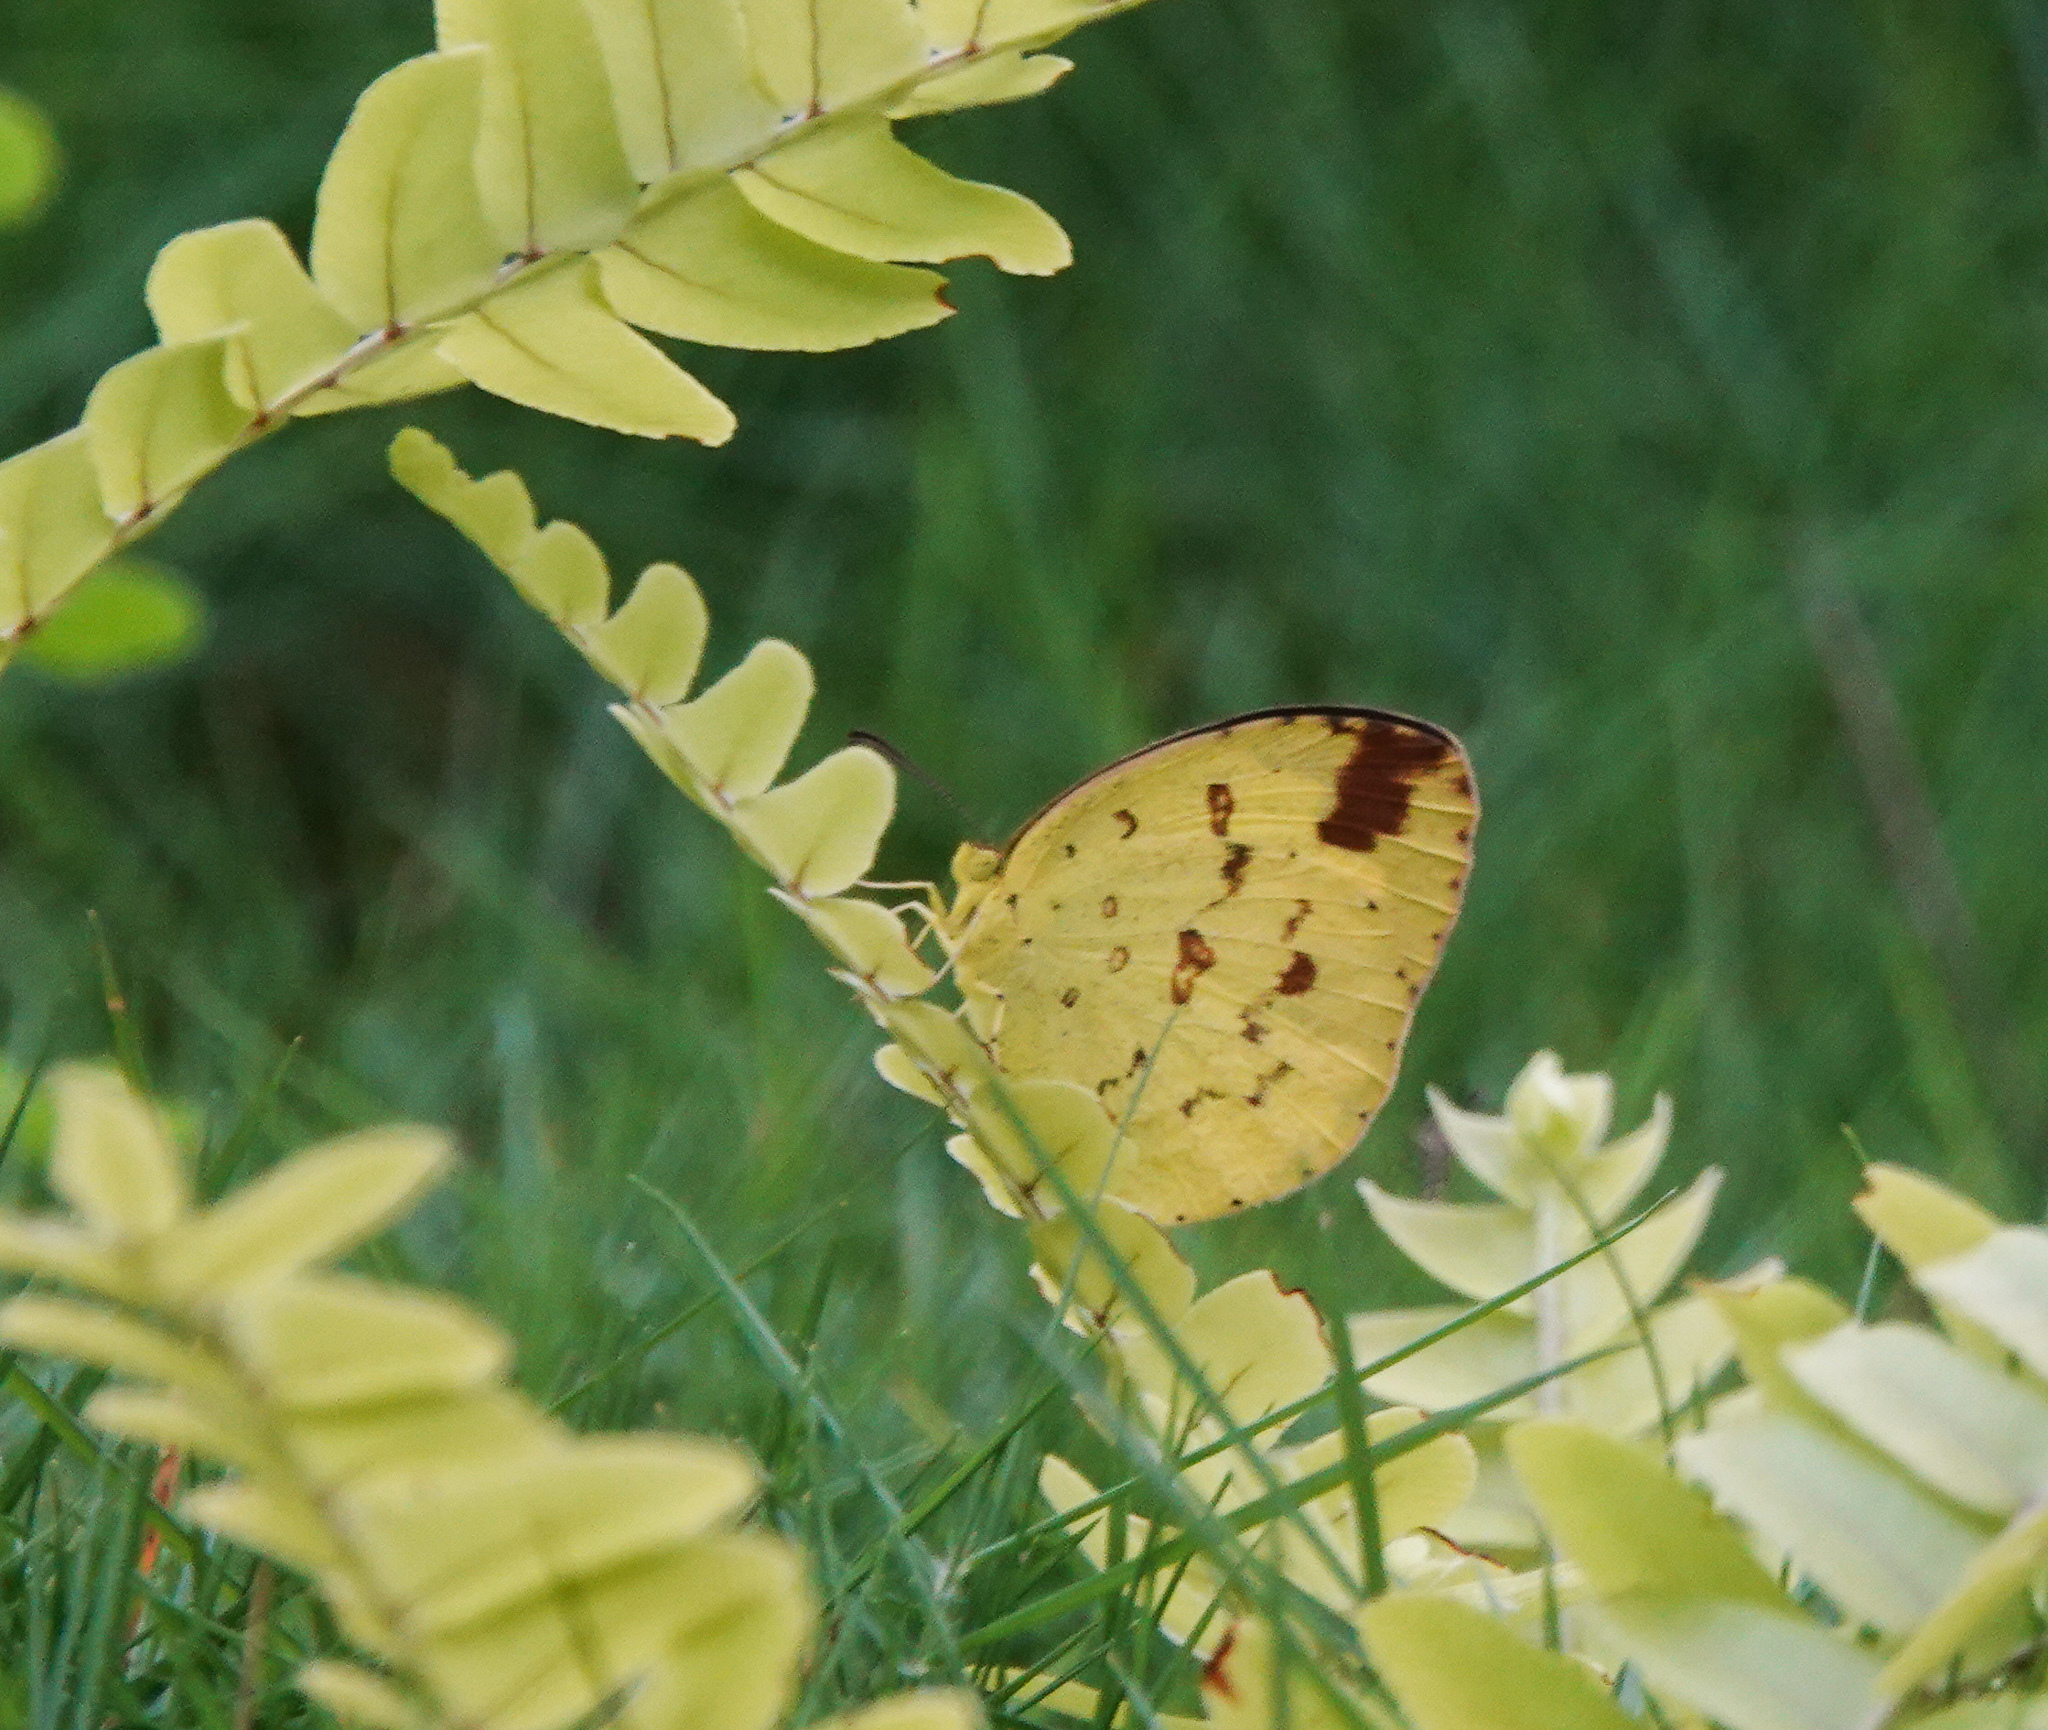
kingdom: Animalia
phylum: Arthropoda
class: Insecta
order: Lepidoptera
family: Pieridae
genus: Eurema
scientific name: Eurema hecabe
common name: Pale grass yellow
